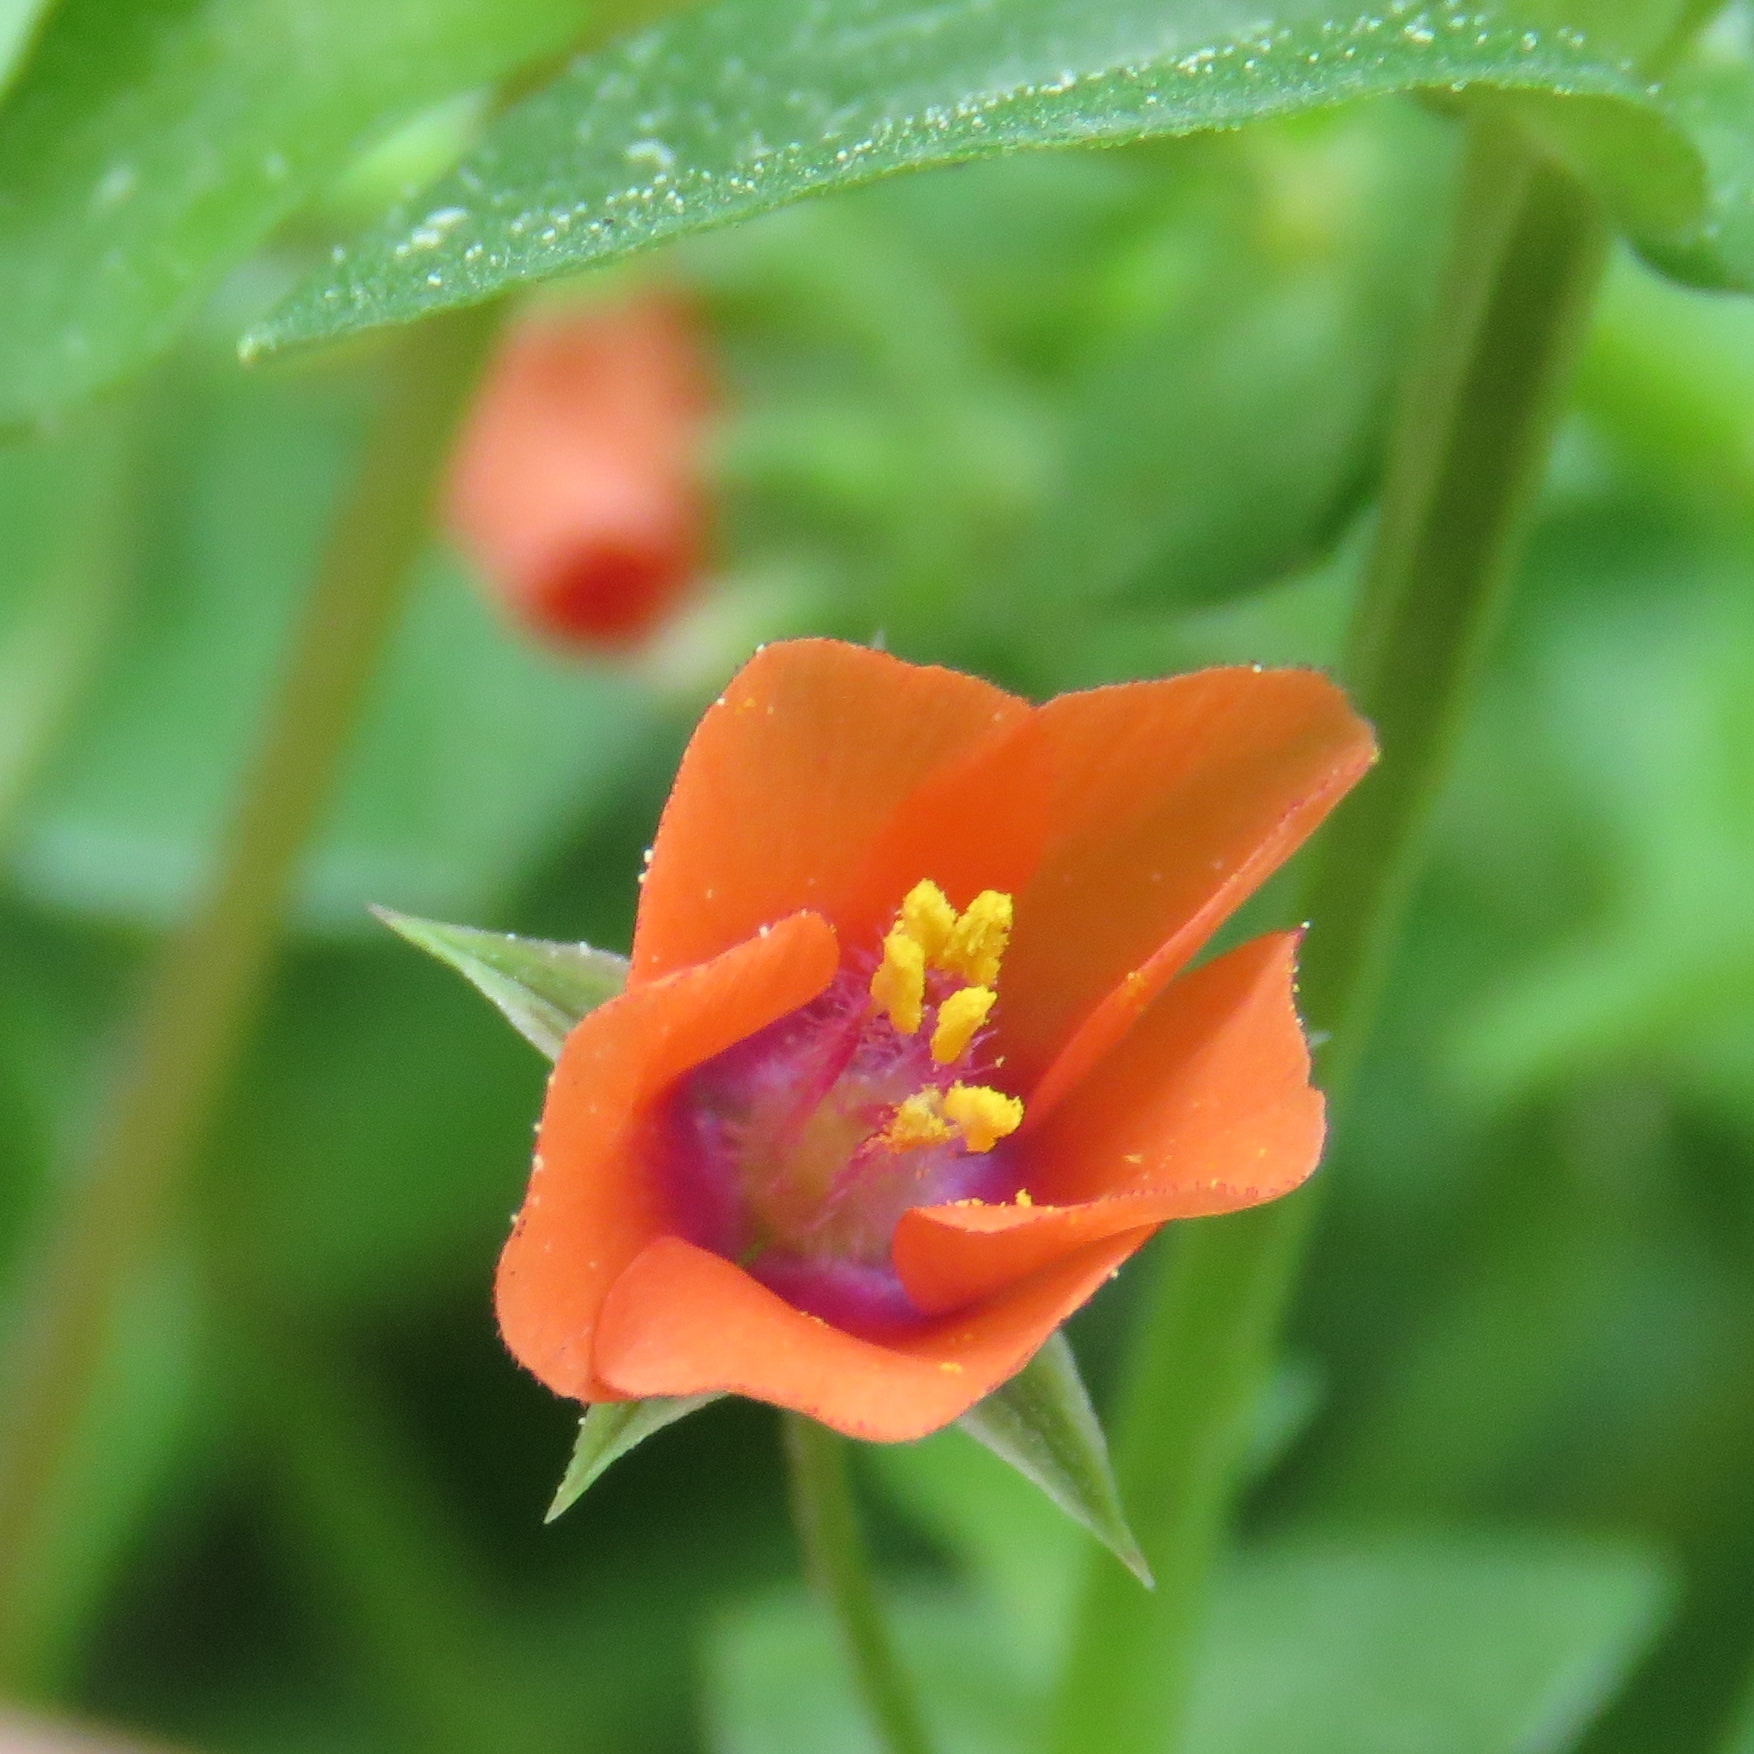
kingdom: Plantae
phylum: Tracheophyta
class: Magnoliopsida
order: Ericales
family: Primulaceae
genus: Lysimachia
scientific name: Lysimachia arvensis
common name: Scarlet pimpernel
